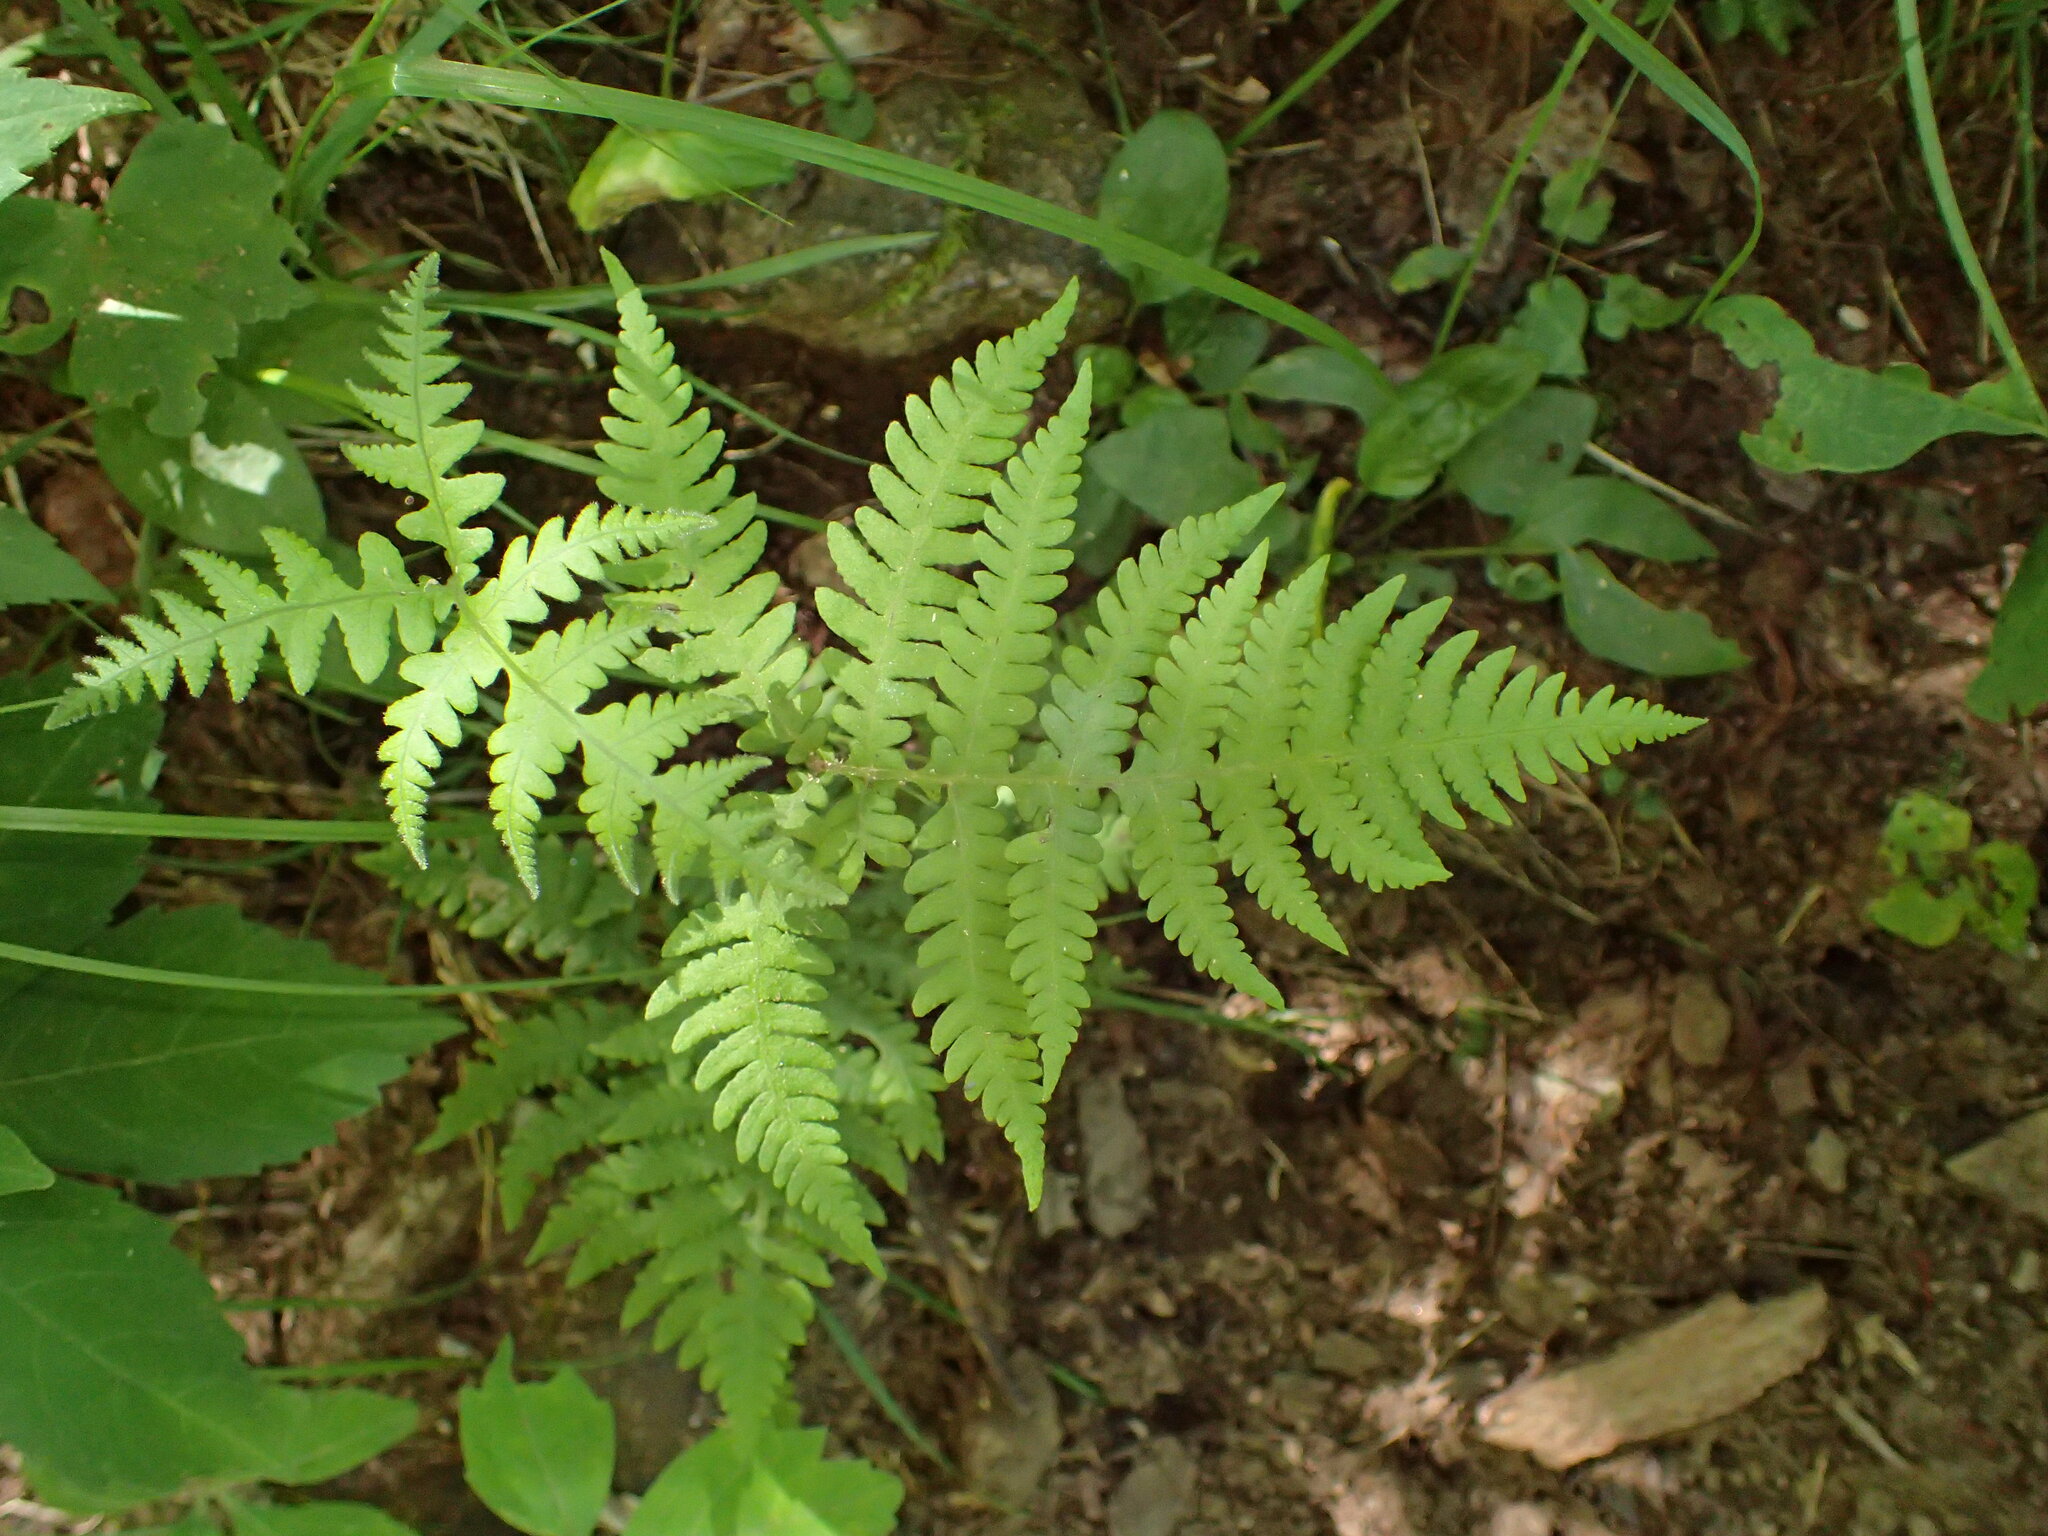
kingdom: Plantae
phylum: Tracheophyta
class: Polypodiopsida
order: Polypodiales
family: Thelypteridaceae
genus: Phegopteris
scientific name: Phegopteris hexagonoptera
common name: Broad beech fern
